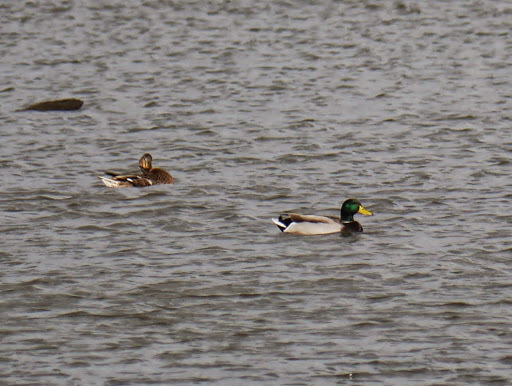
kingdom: Animalia
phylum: Chordata
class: Aves
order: Anseriformes
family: Anatidae
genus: Anas
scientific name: Anas platyrhynchos
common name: Mallard
